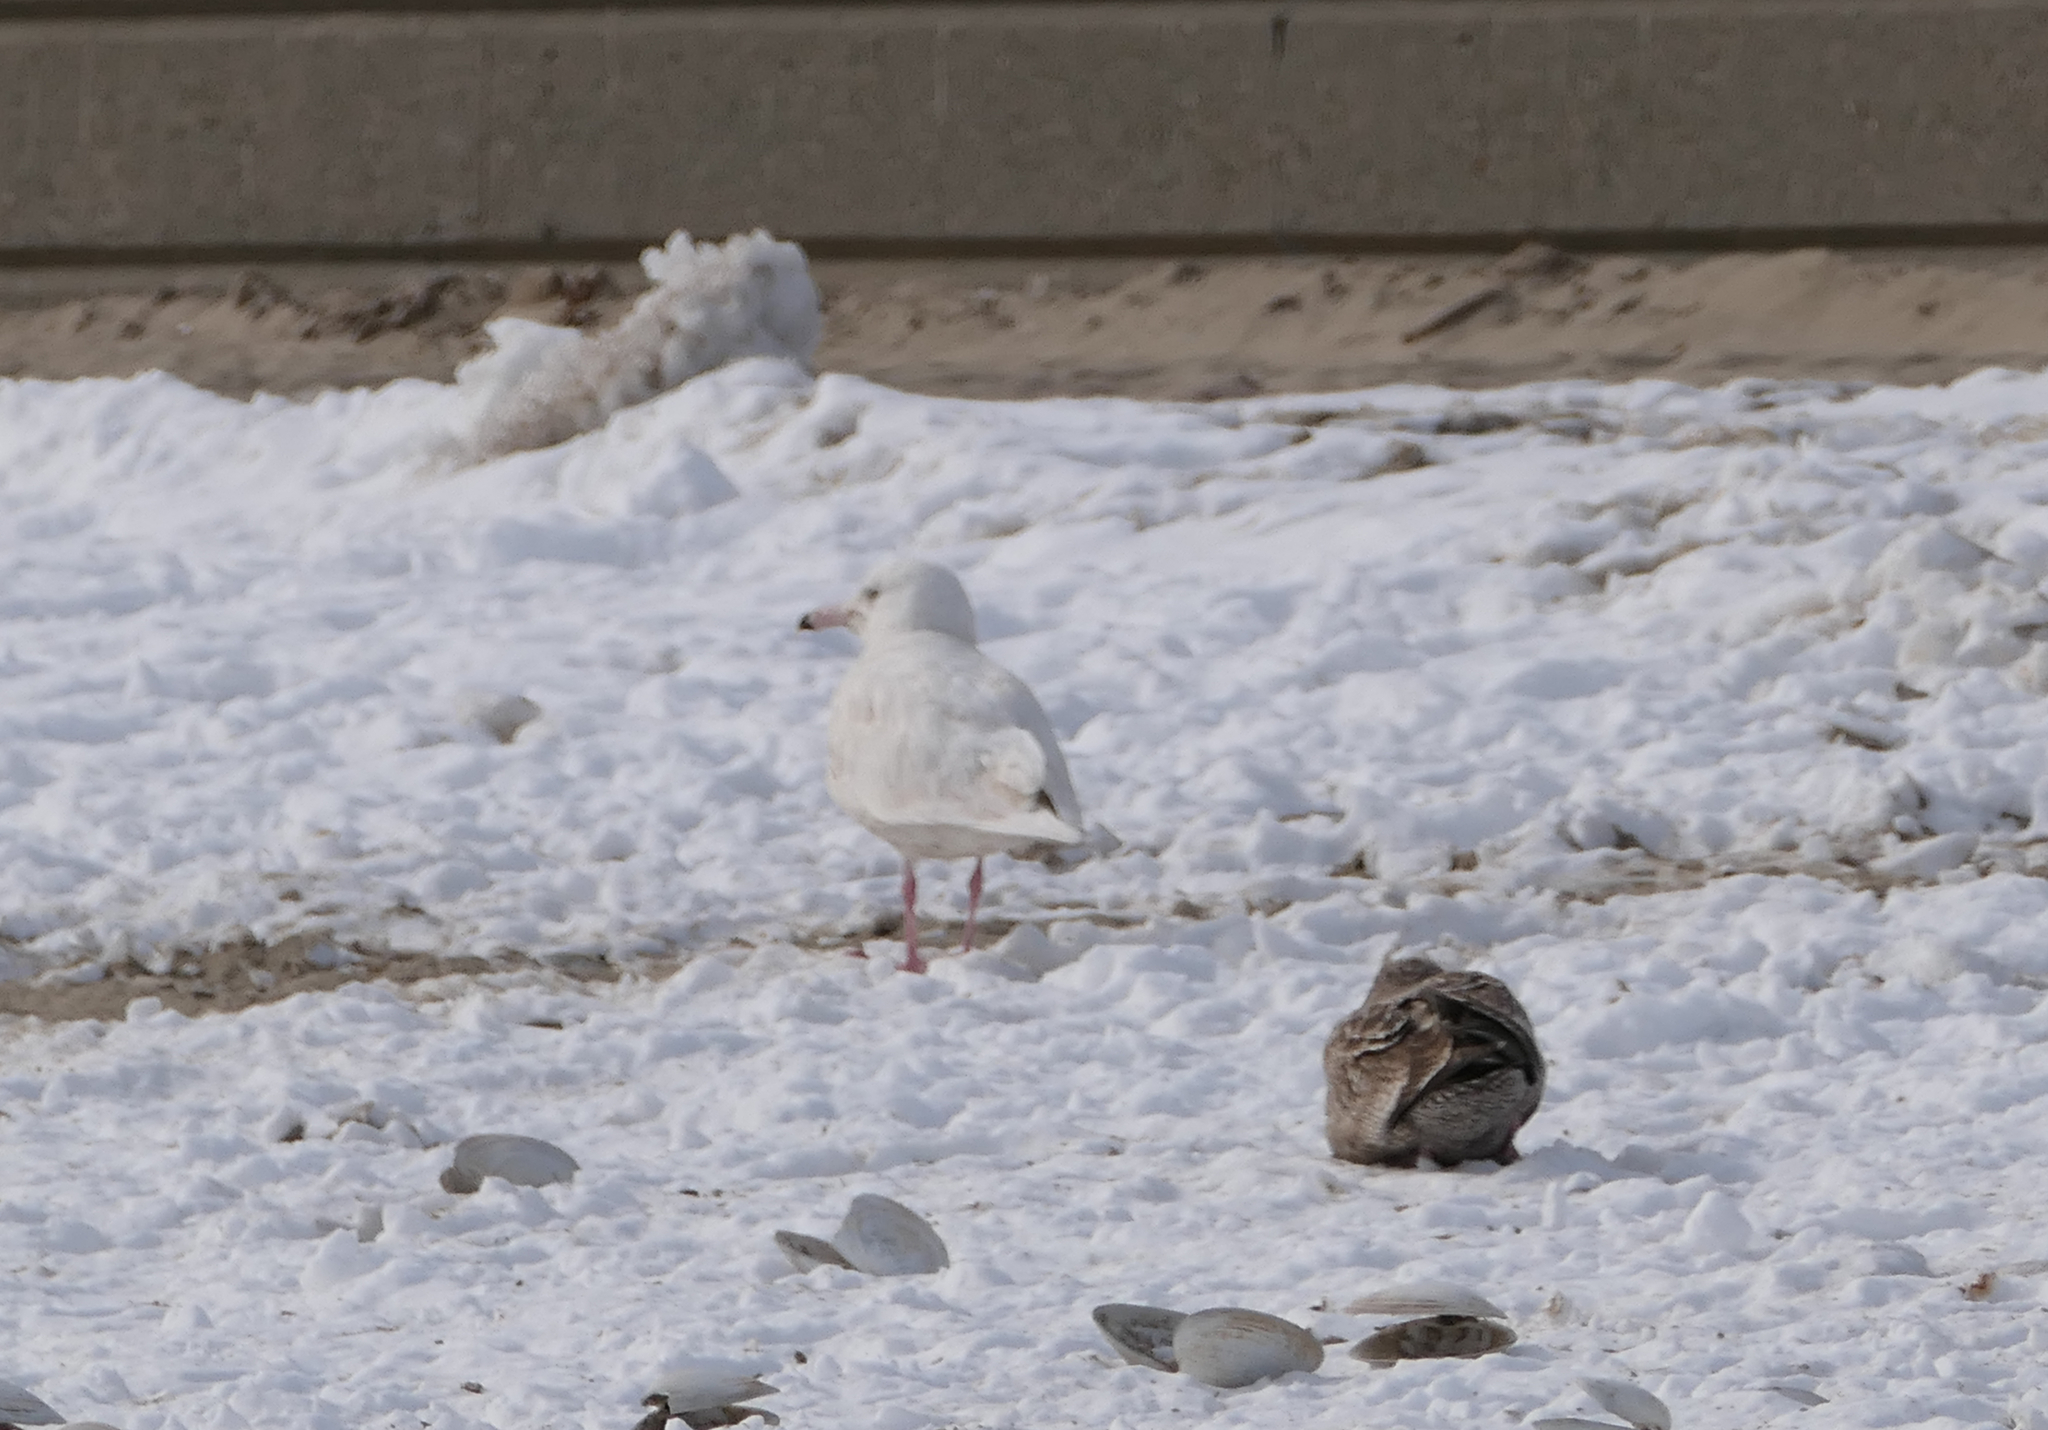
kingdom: Animalia
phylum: Chordata
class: Aves
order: Charadriiformes
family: Laridae
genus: Larus
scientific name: Larus hyperboreus
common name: Glaucous gull
